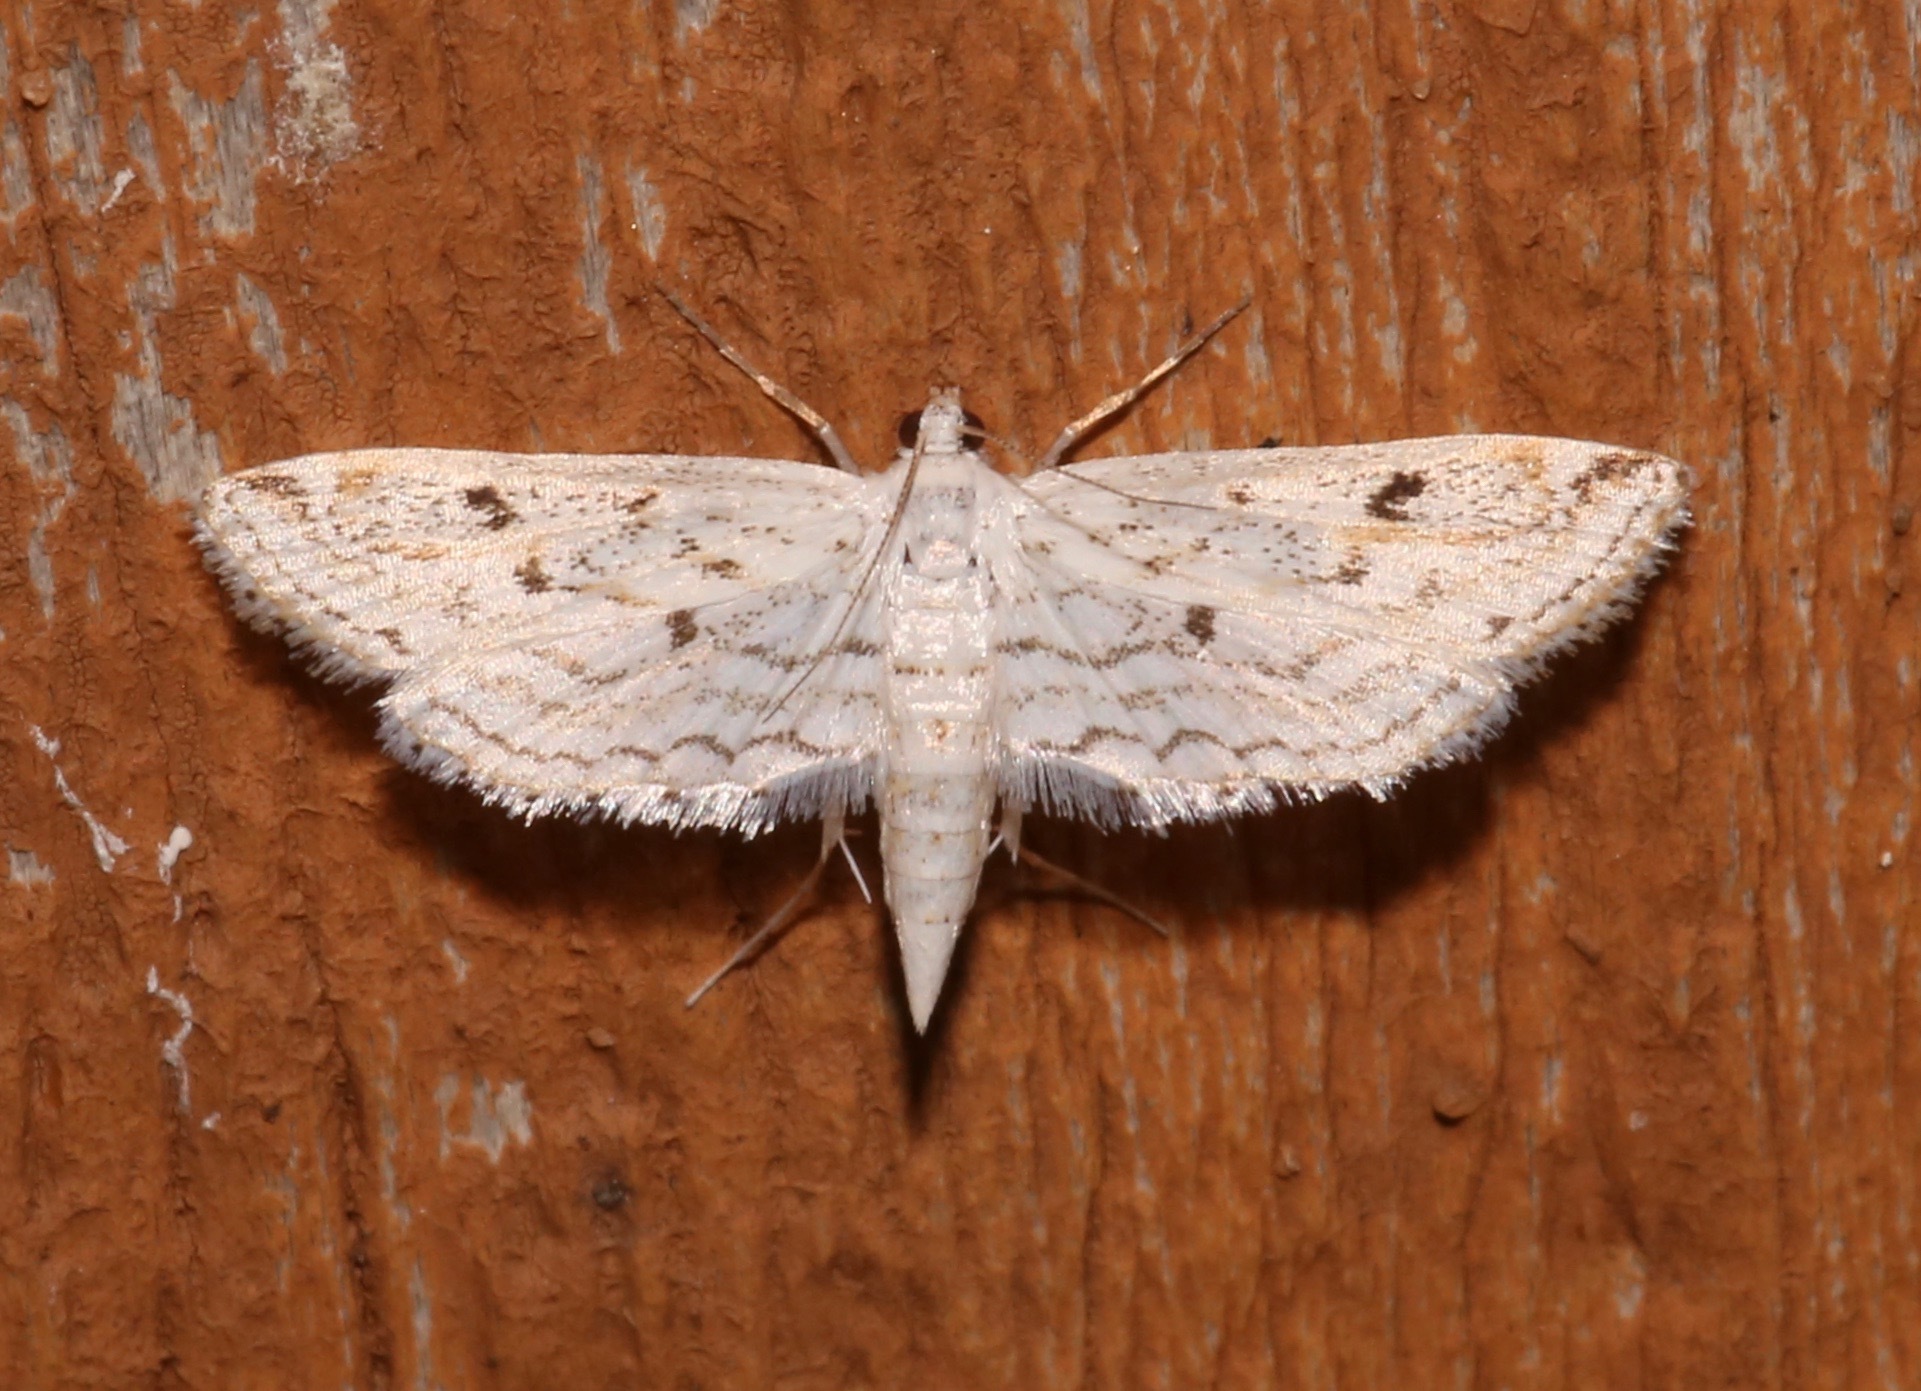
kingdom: Animalia
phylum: Arthropoda
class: Insecta
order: Lepidoptera
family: Crambidae
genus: Parapoynx
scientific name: Parapoynx allionealis
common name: Bladderwort casemaker
